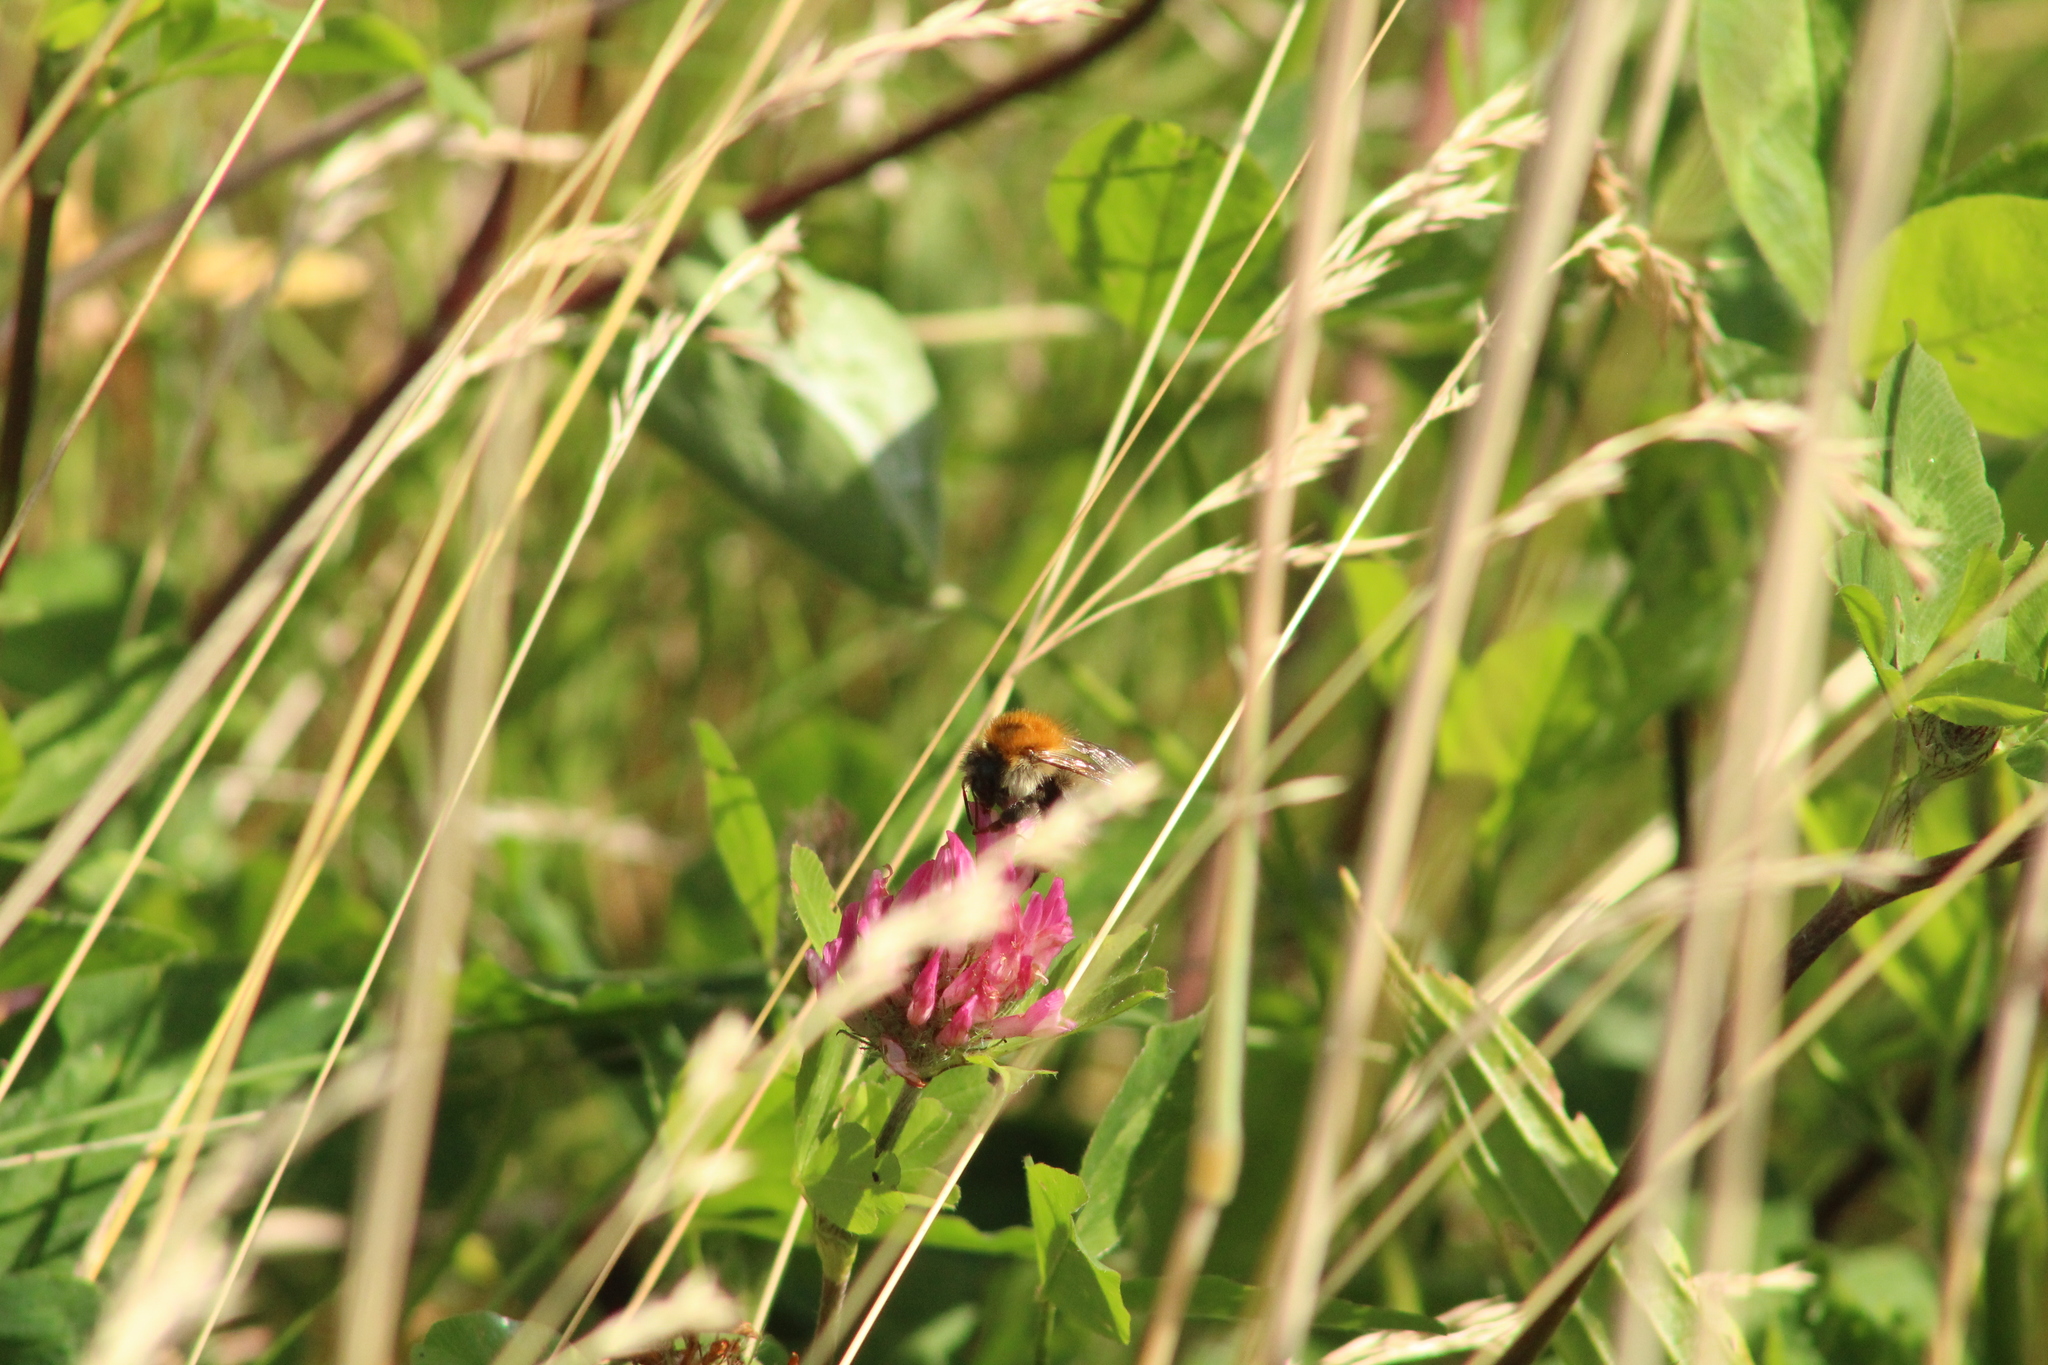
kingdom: Animalia
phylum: Arthropoda
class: Insecta
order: Hymenoptera
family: Apidae
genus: Bombus
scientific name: Bombus pascuorum
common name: Common carder bee
